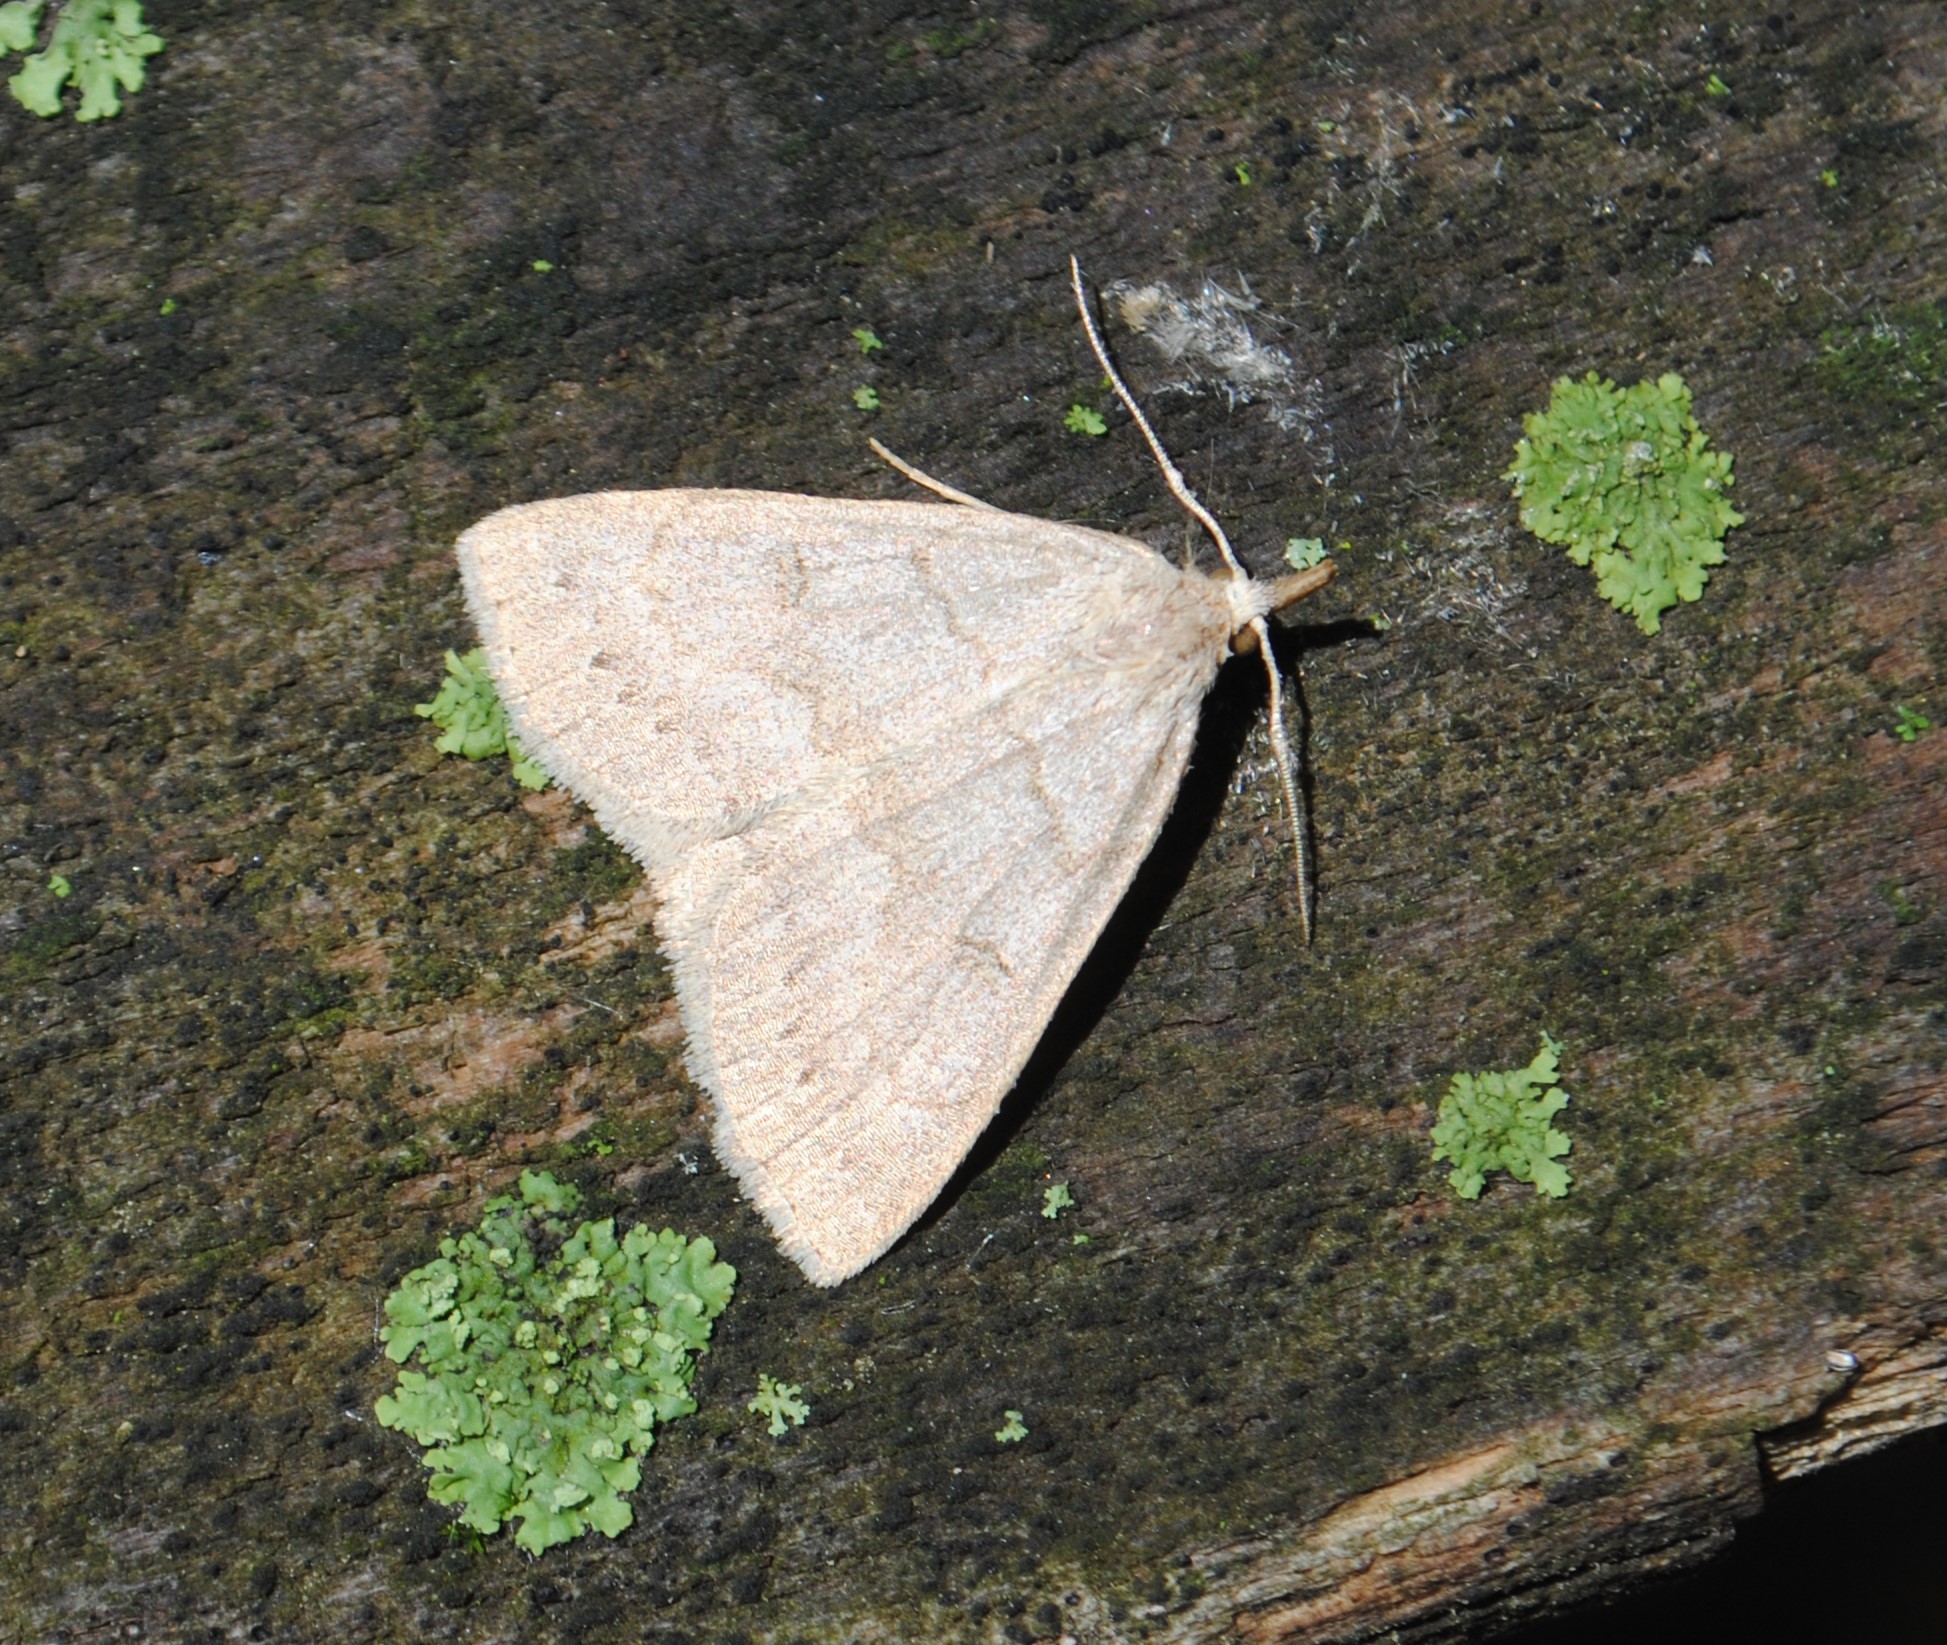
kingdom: Animalia
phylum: Arthropoda
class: Insecta
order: Lepidoptera
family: Erebidae
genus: Macrochilo
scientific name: Macrochilo morbidalis
